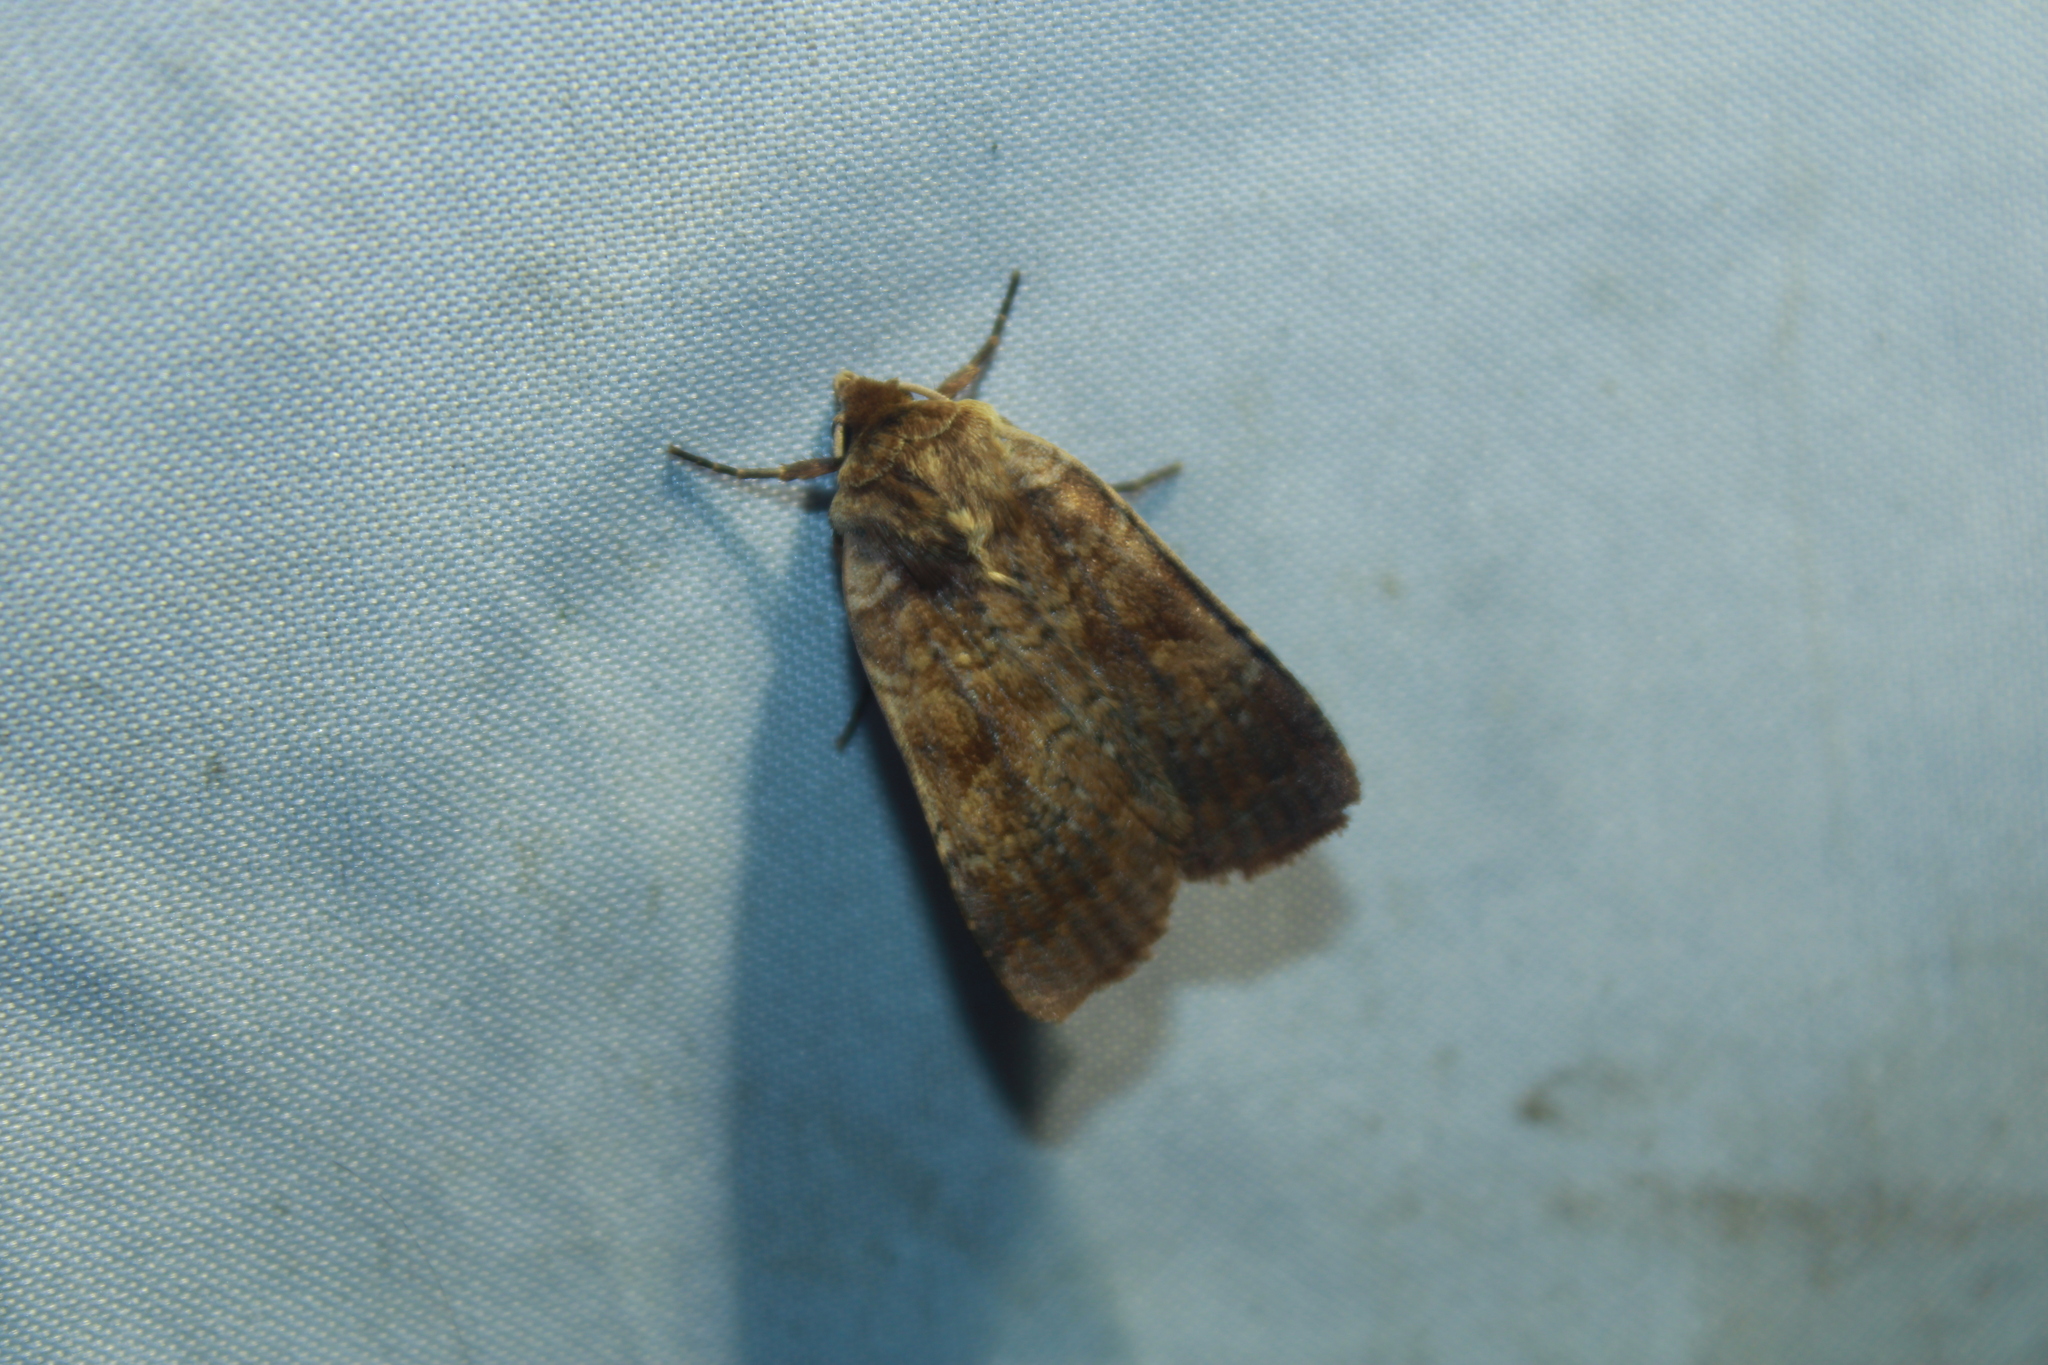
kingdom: Animalia
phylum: Arthropoda
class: Insecta
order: Lepidoptera
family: Noctuidae
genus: Lycophotia
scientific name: Lycophotia phyllophora
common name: Lycophotia moth
